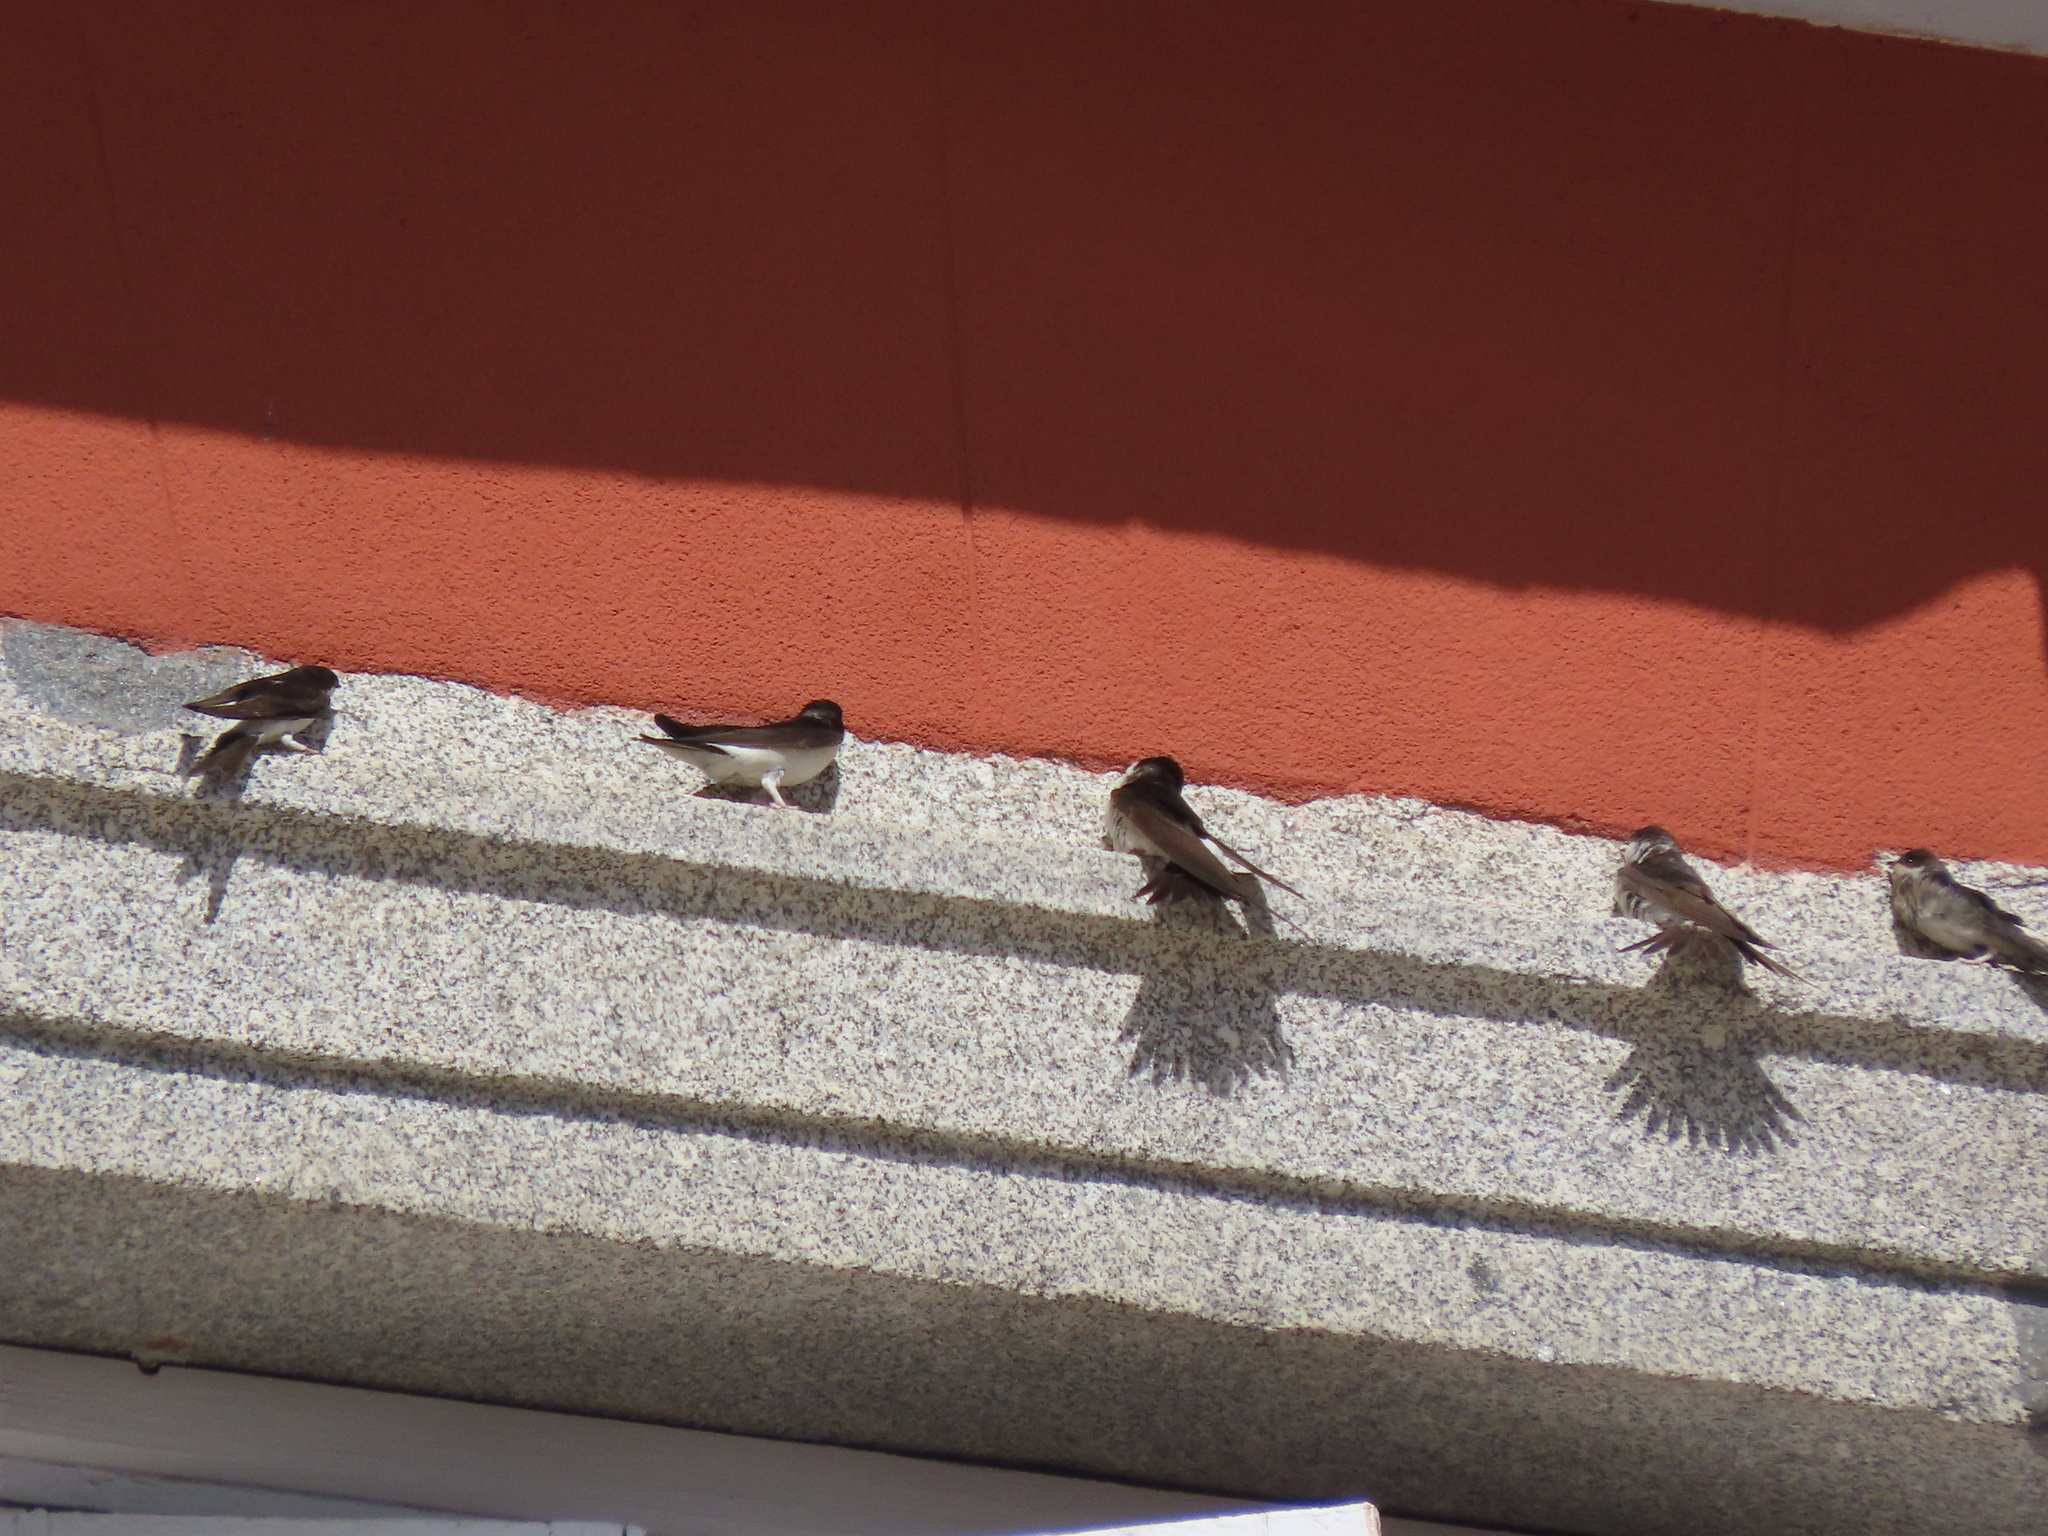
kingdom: Animalia
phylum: Chordata
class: Aves
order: Passeriformes
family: Hirundinidae
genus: Delichon
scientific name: Delichon urbicum
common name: Common house martin
